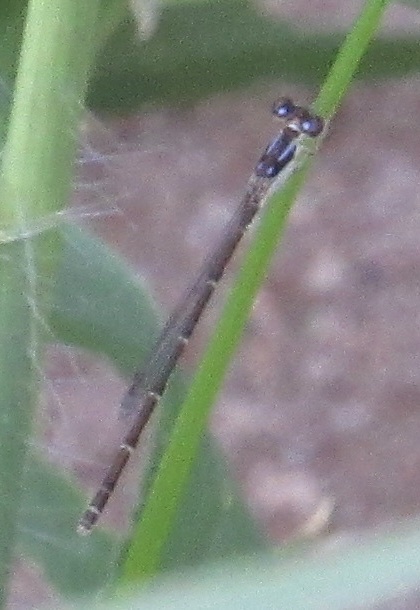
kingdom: Animalia
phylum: Arthropoda
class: Insecta
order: Odonata
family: Coenagrionidae
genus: Ischnura
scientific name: Ischnura posita
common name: Fragile forktail
